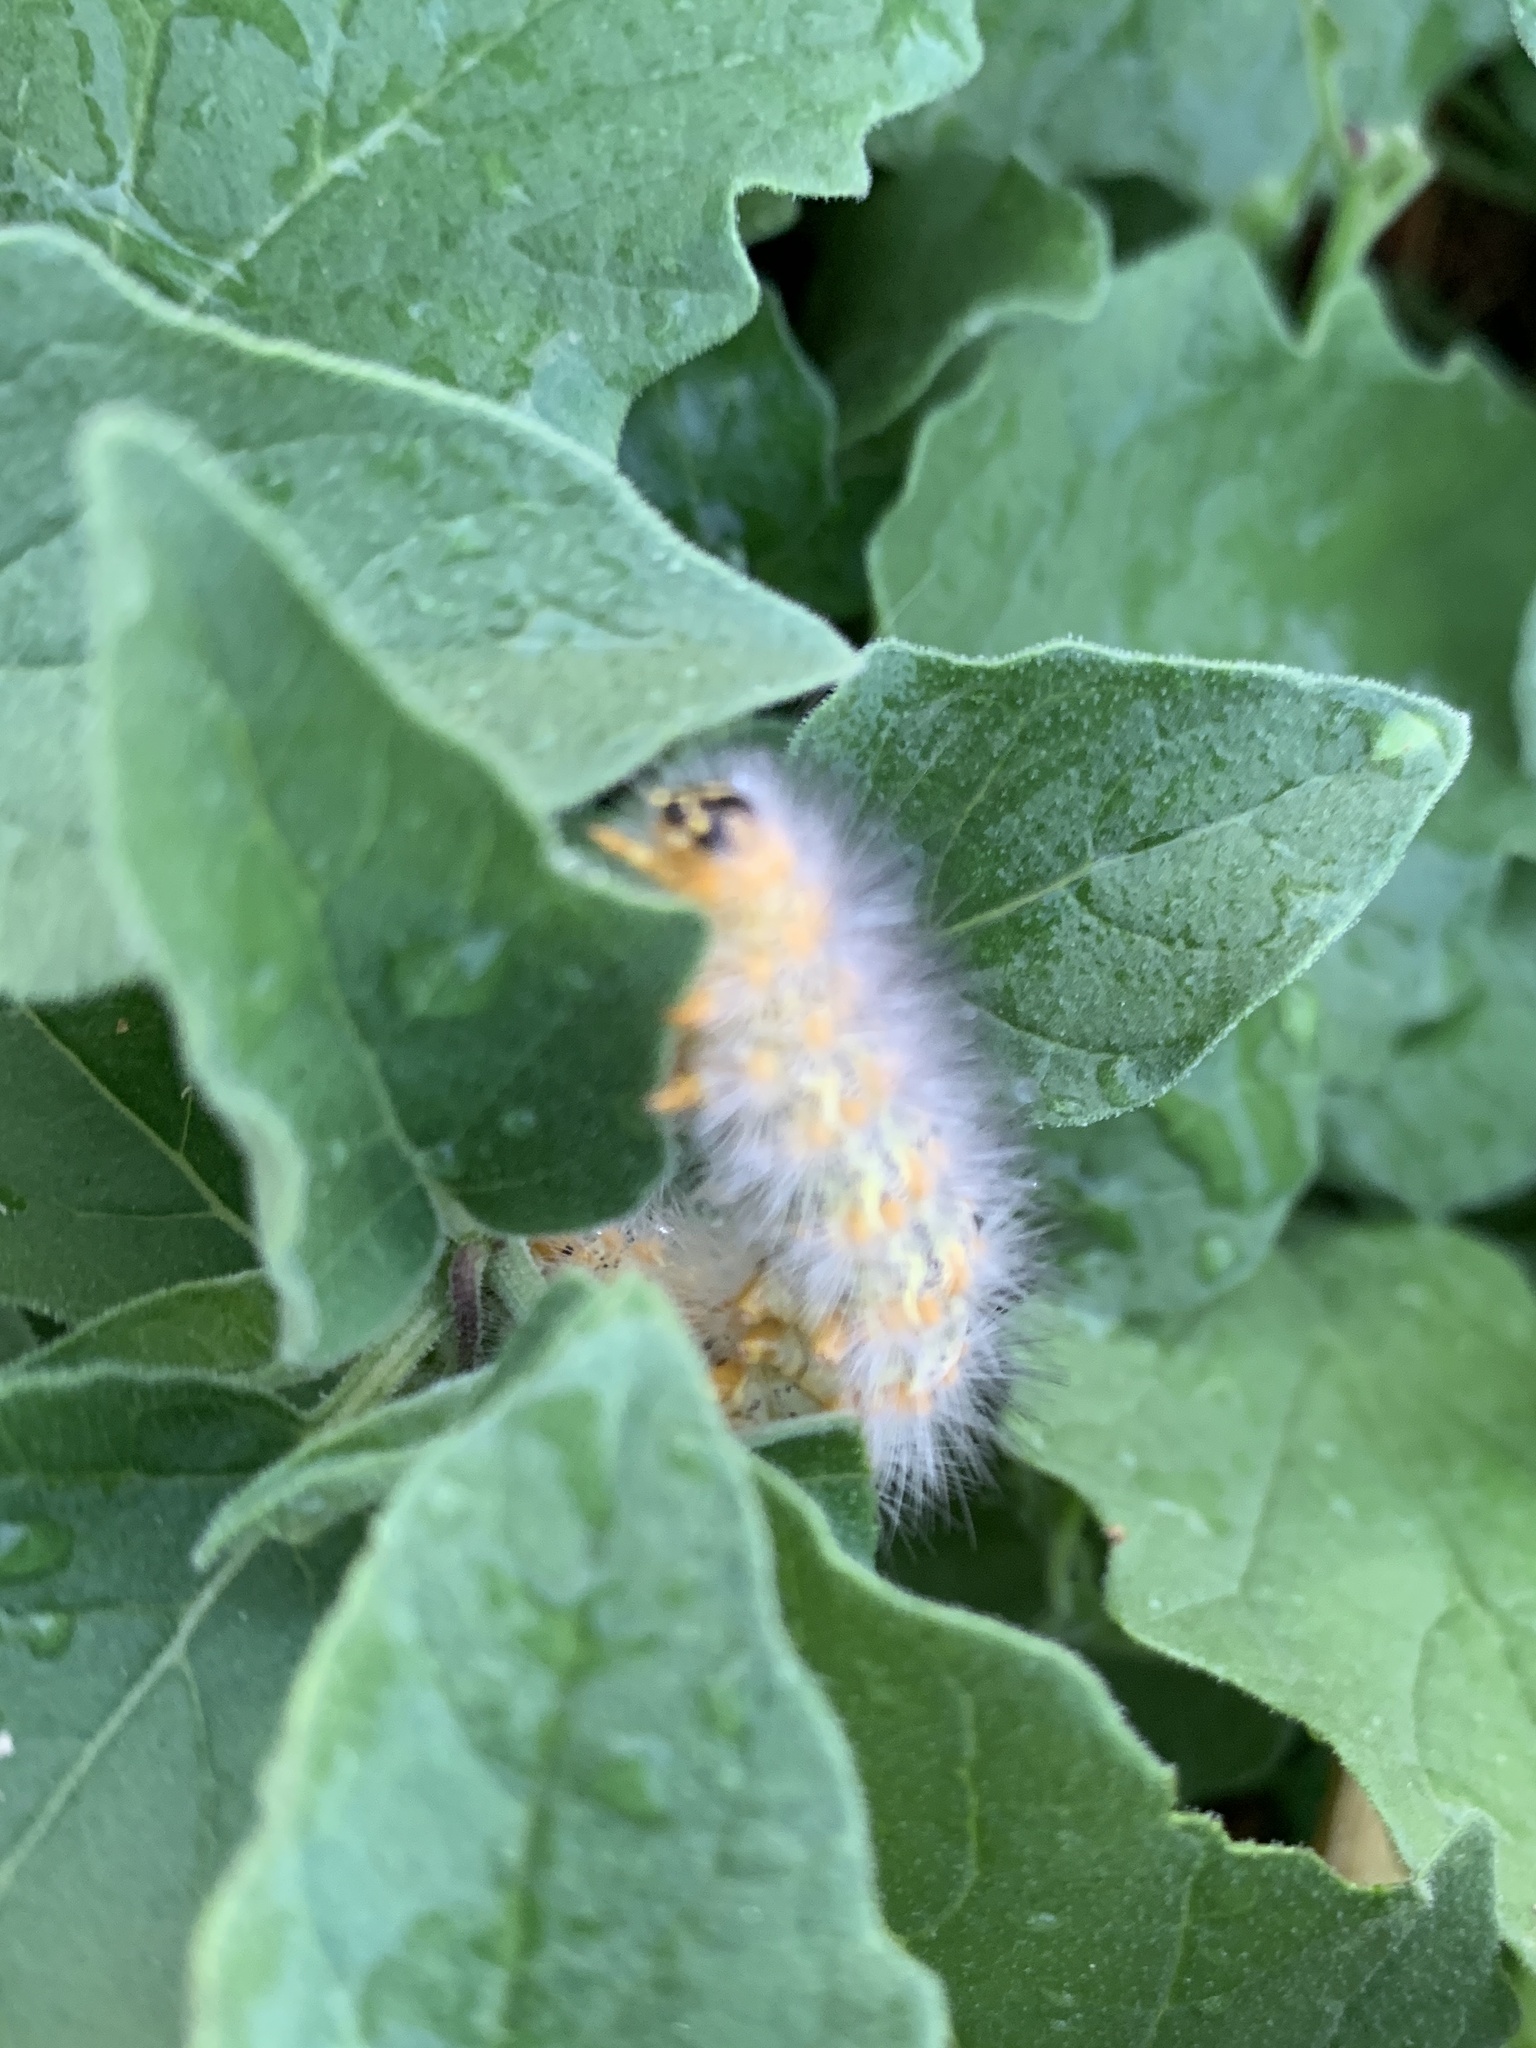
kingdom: Animalia
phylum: Arthropoda
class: Insecta
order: Lepidoptera
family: Erebidae
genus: Estigmene
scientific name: Estigmene acrea
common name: Salt marsh moth
